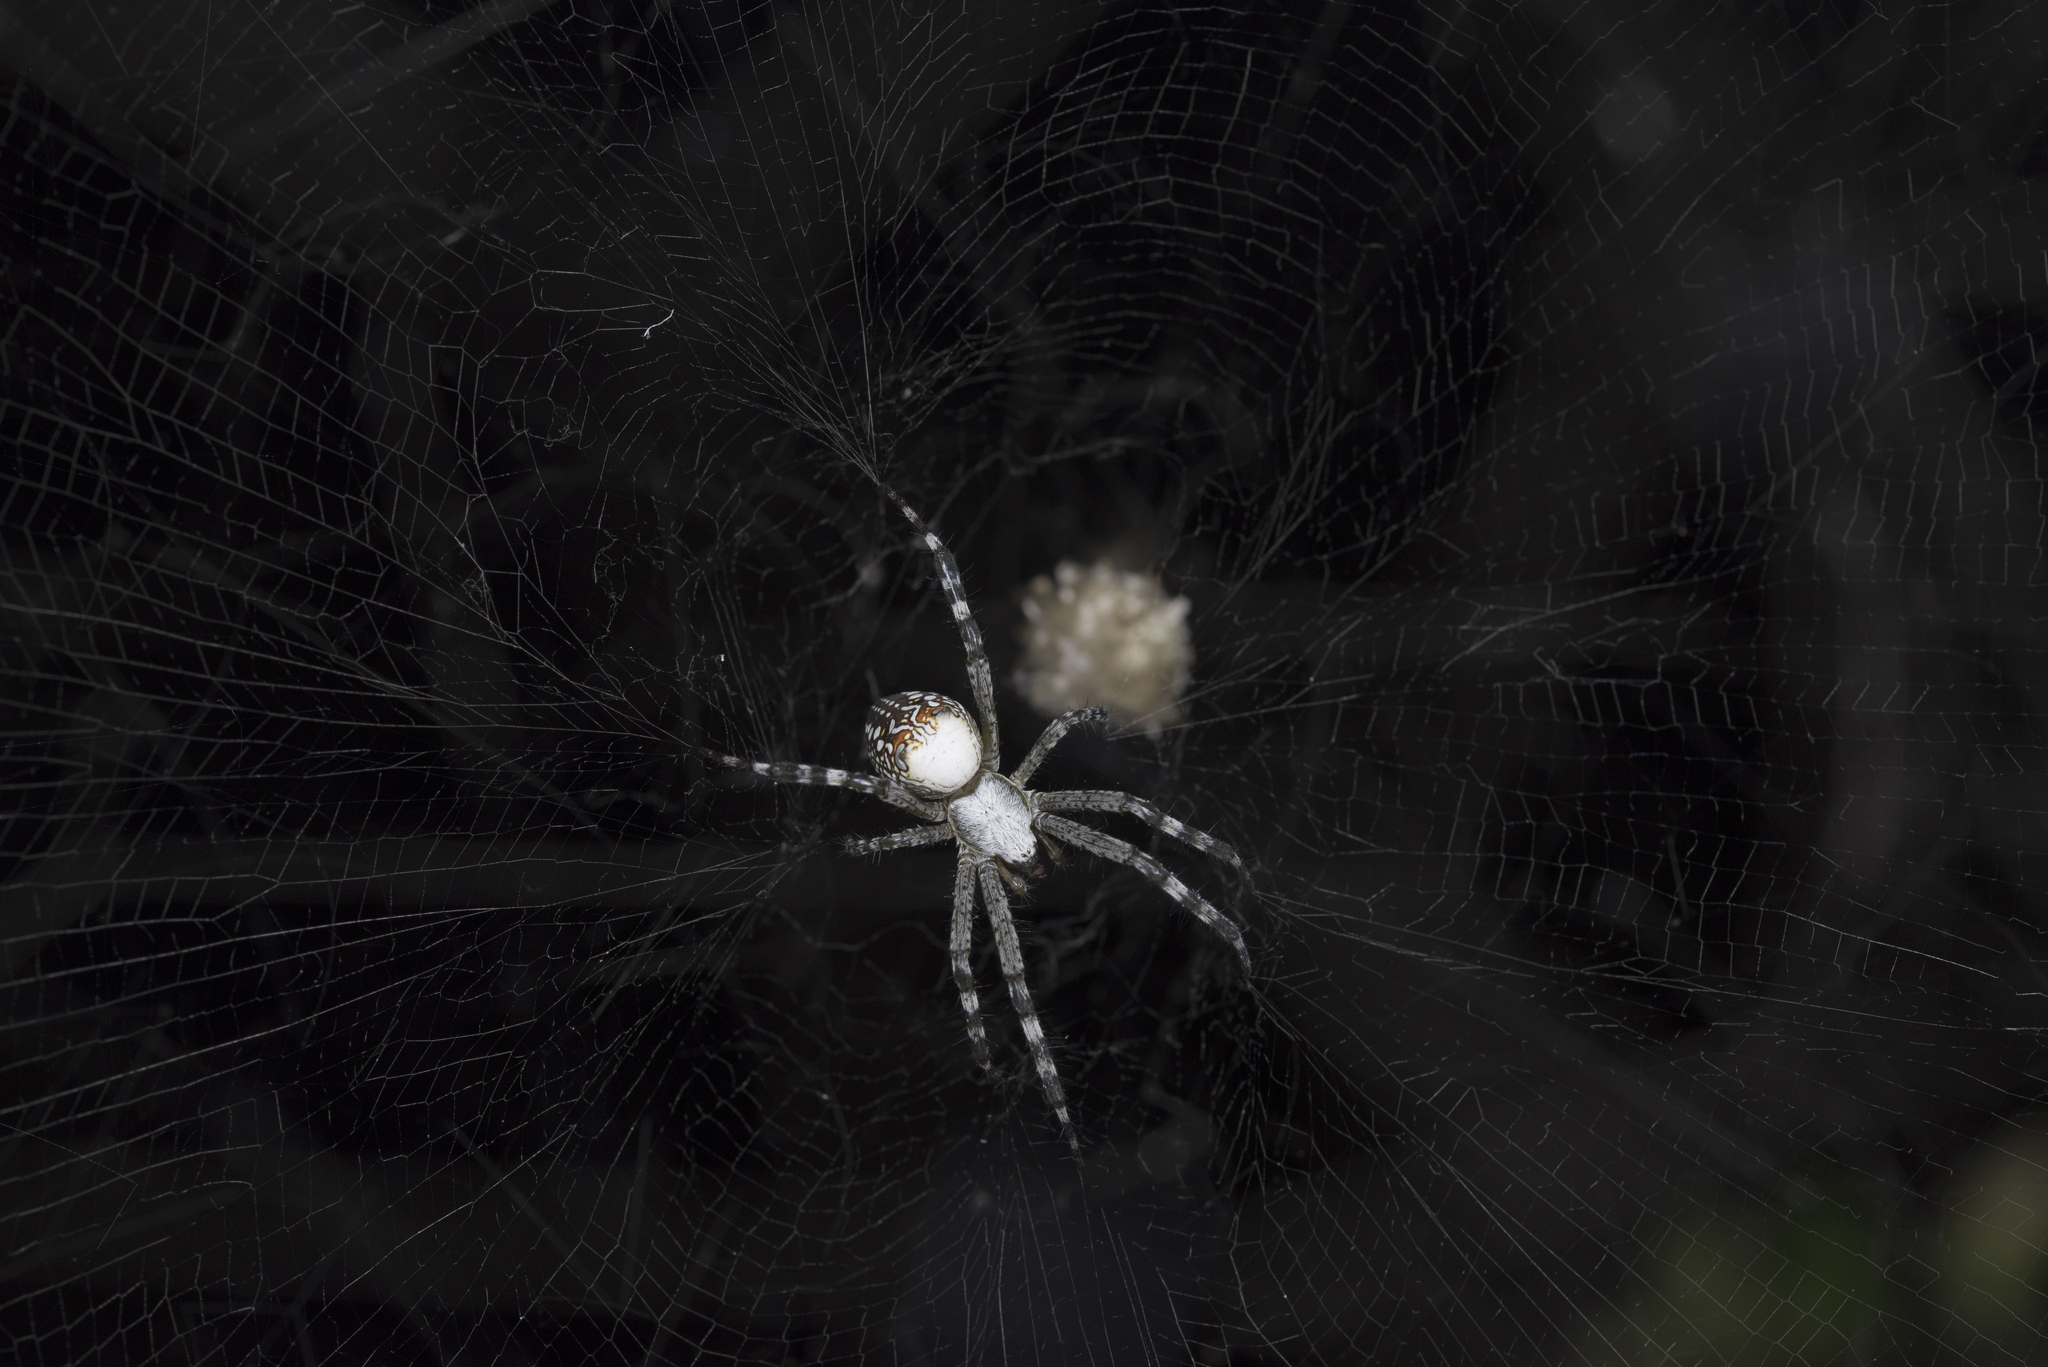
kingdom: Chromista
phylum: Ochrophyta
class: Dictyochophyceae
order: Pedinellales
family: Cyrtophoraceae
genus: Cyrtophora
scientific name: Cyrtophora moluccensis
